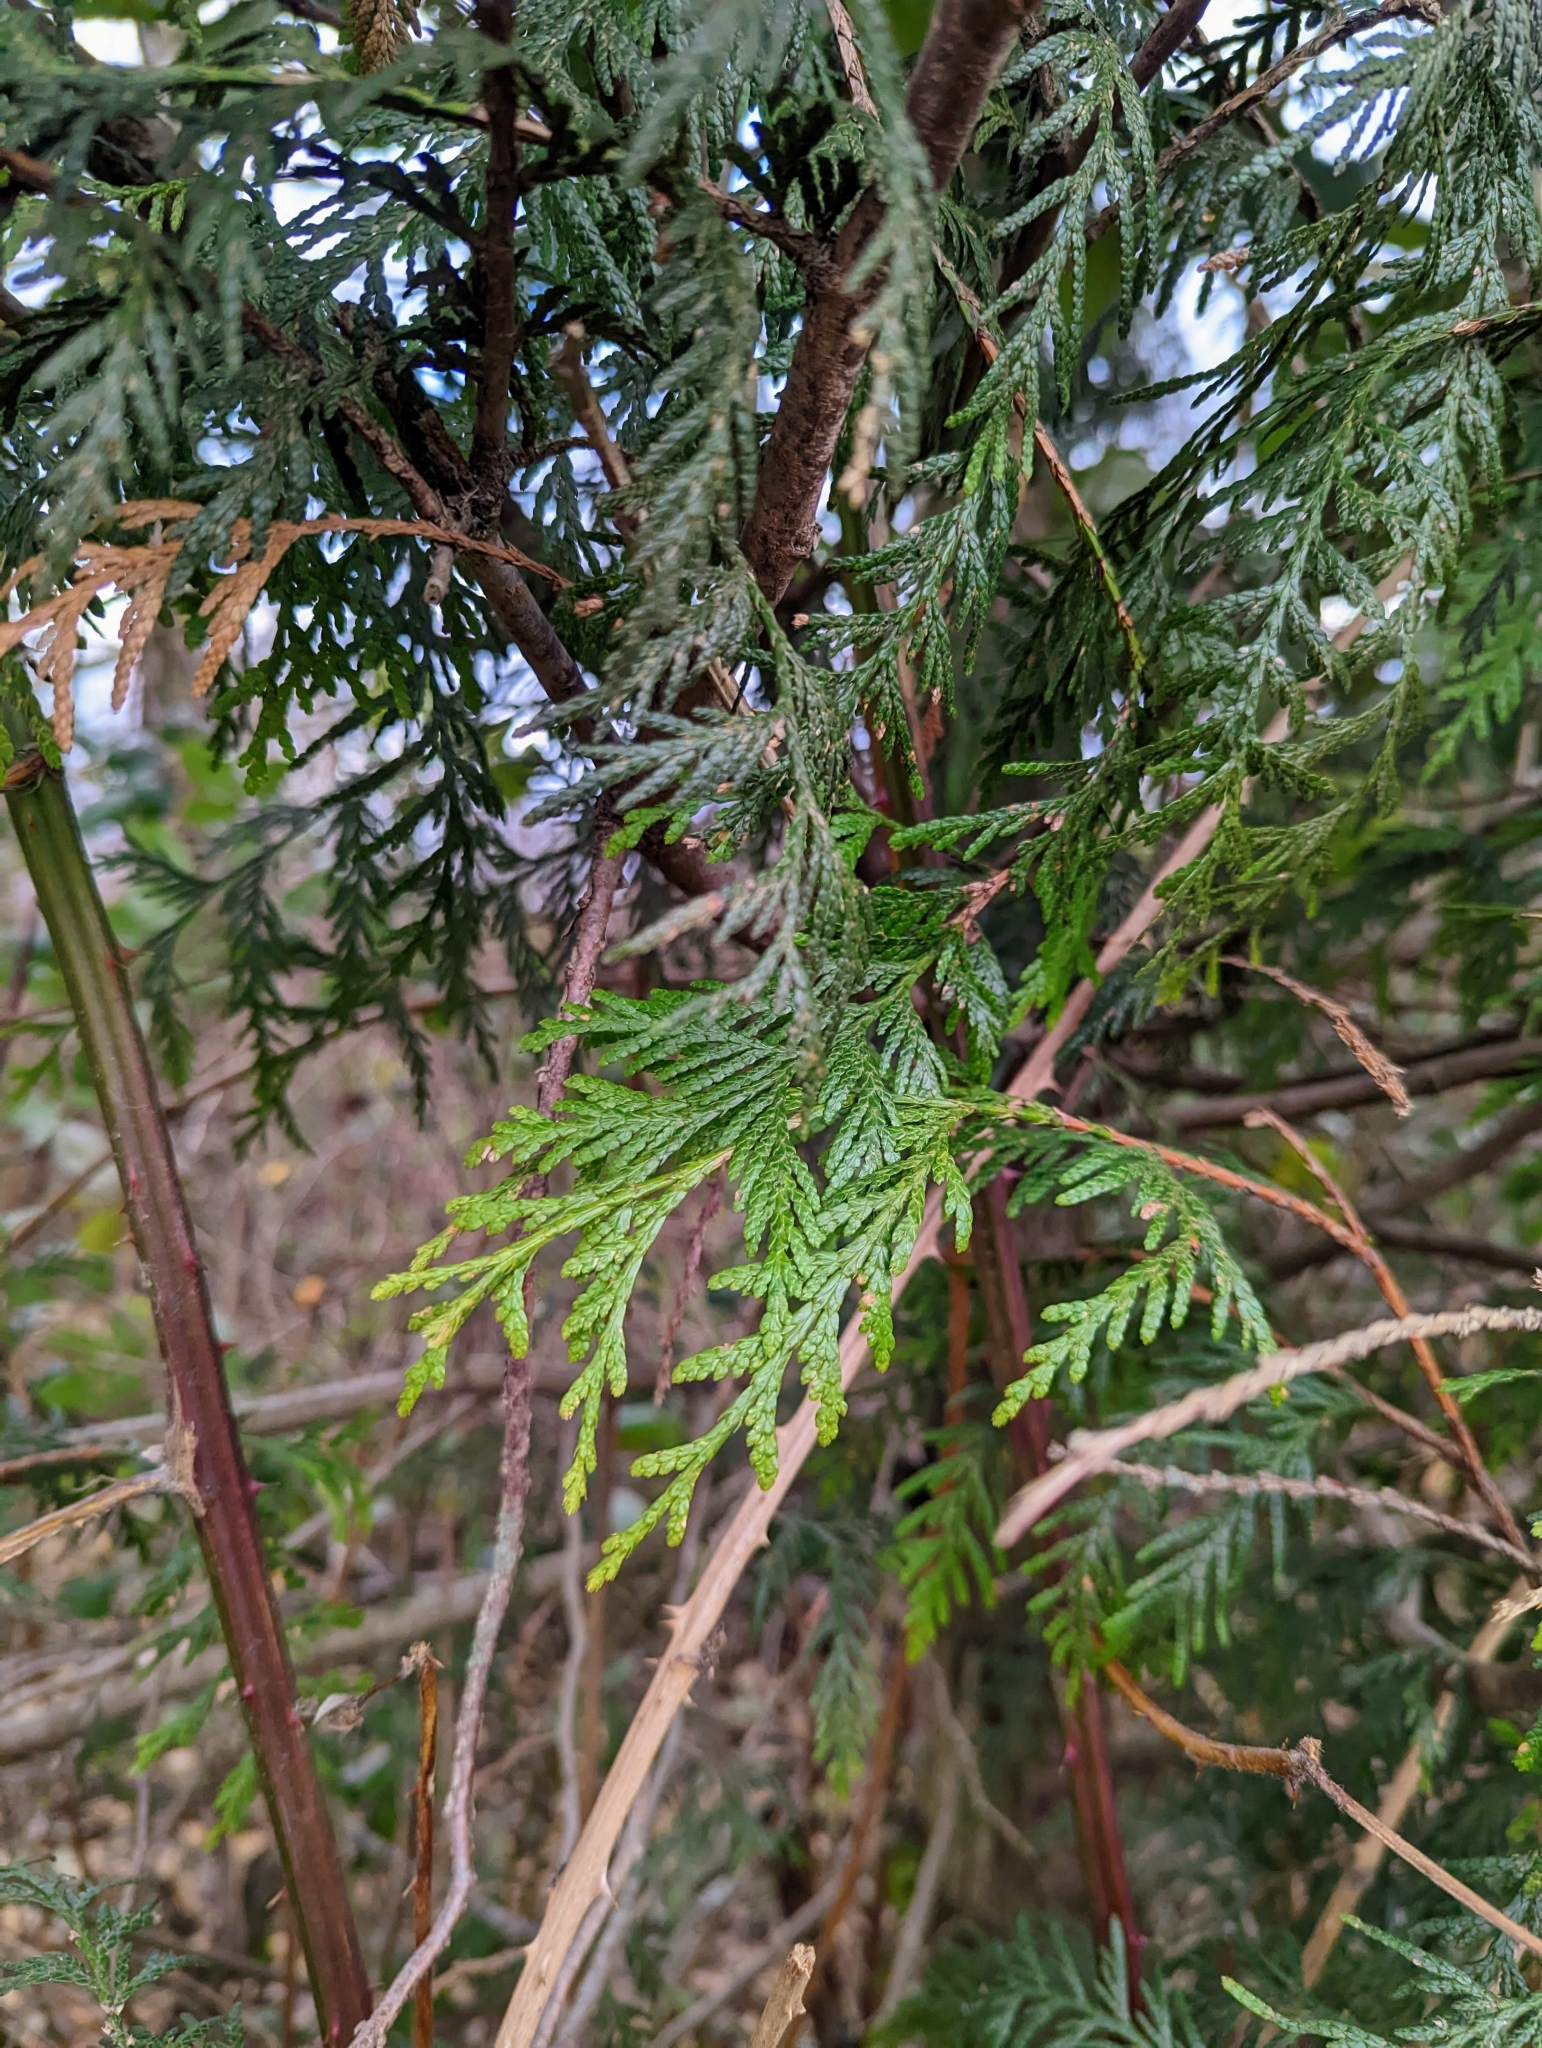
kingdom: Plantae
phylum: Tracheophyta
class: Pinopsida
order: Pinales
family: Cupressaceae
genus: Thuja
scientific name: Thuja plicata
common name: Western red-cedar
